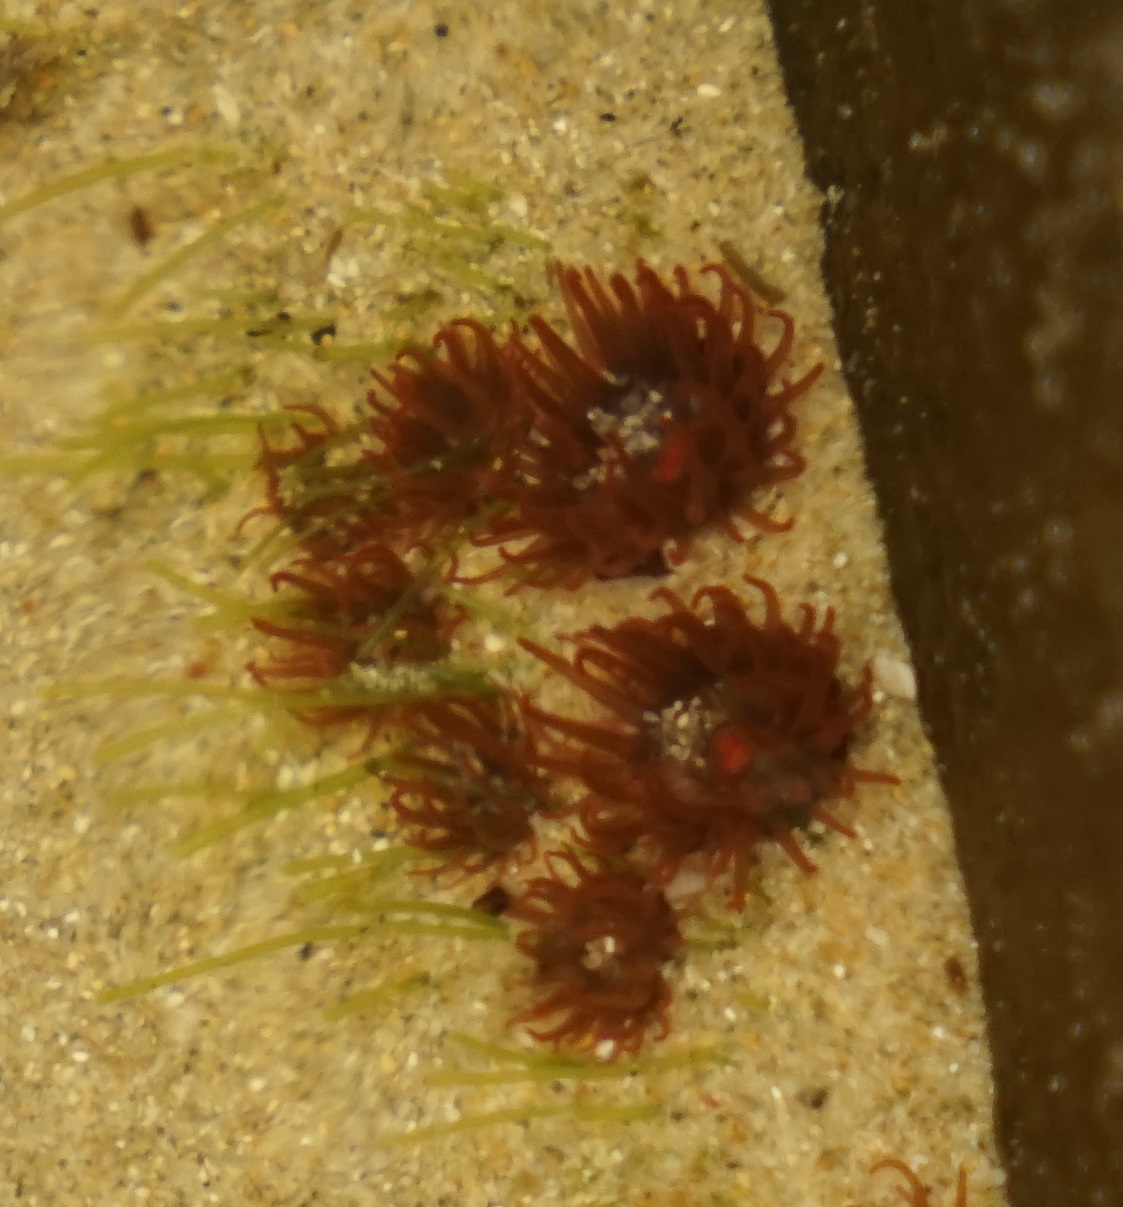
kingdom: Animalia
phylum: Cnidaria
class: Anthozoa
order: Actiniaria
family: Actiniidae
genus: Actinia
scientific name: Actinia tenebrosa
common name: Waratah anemone
